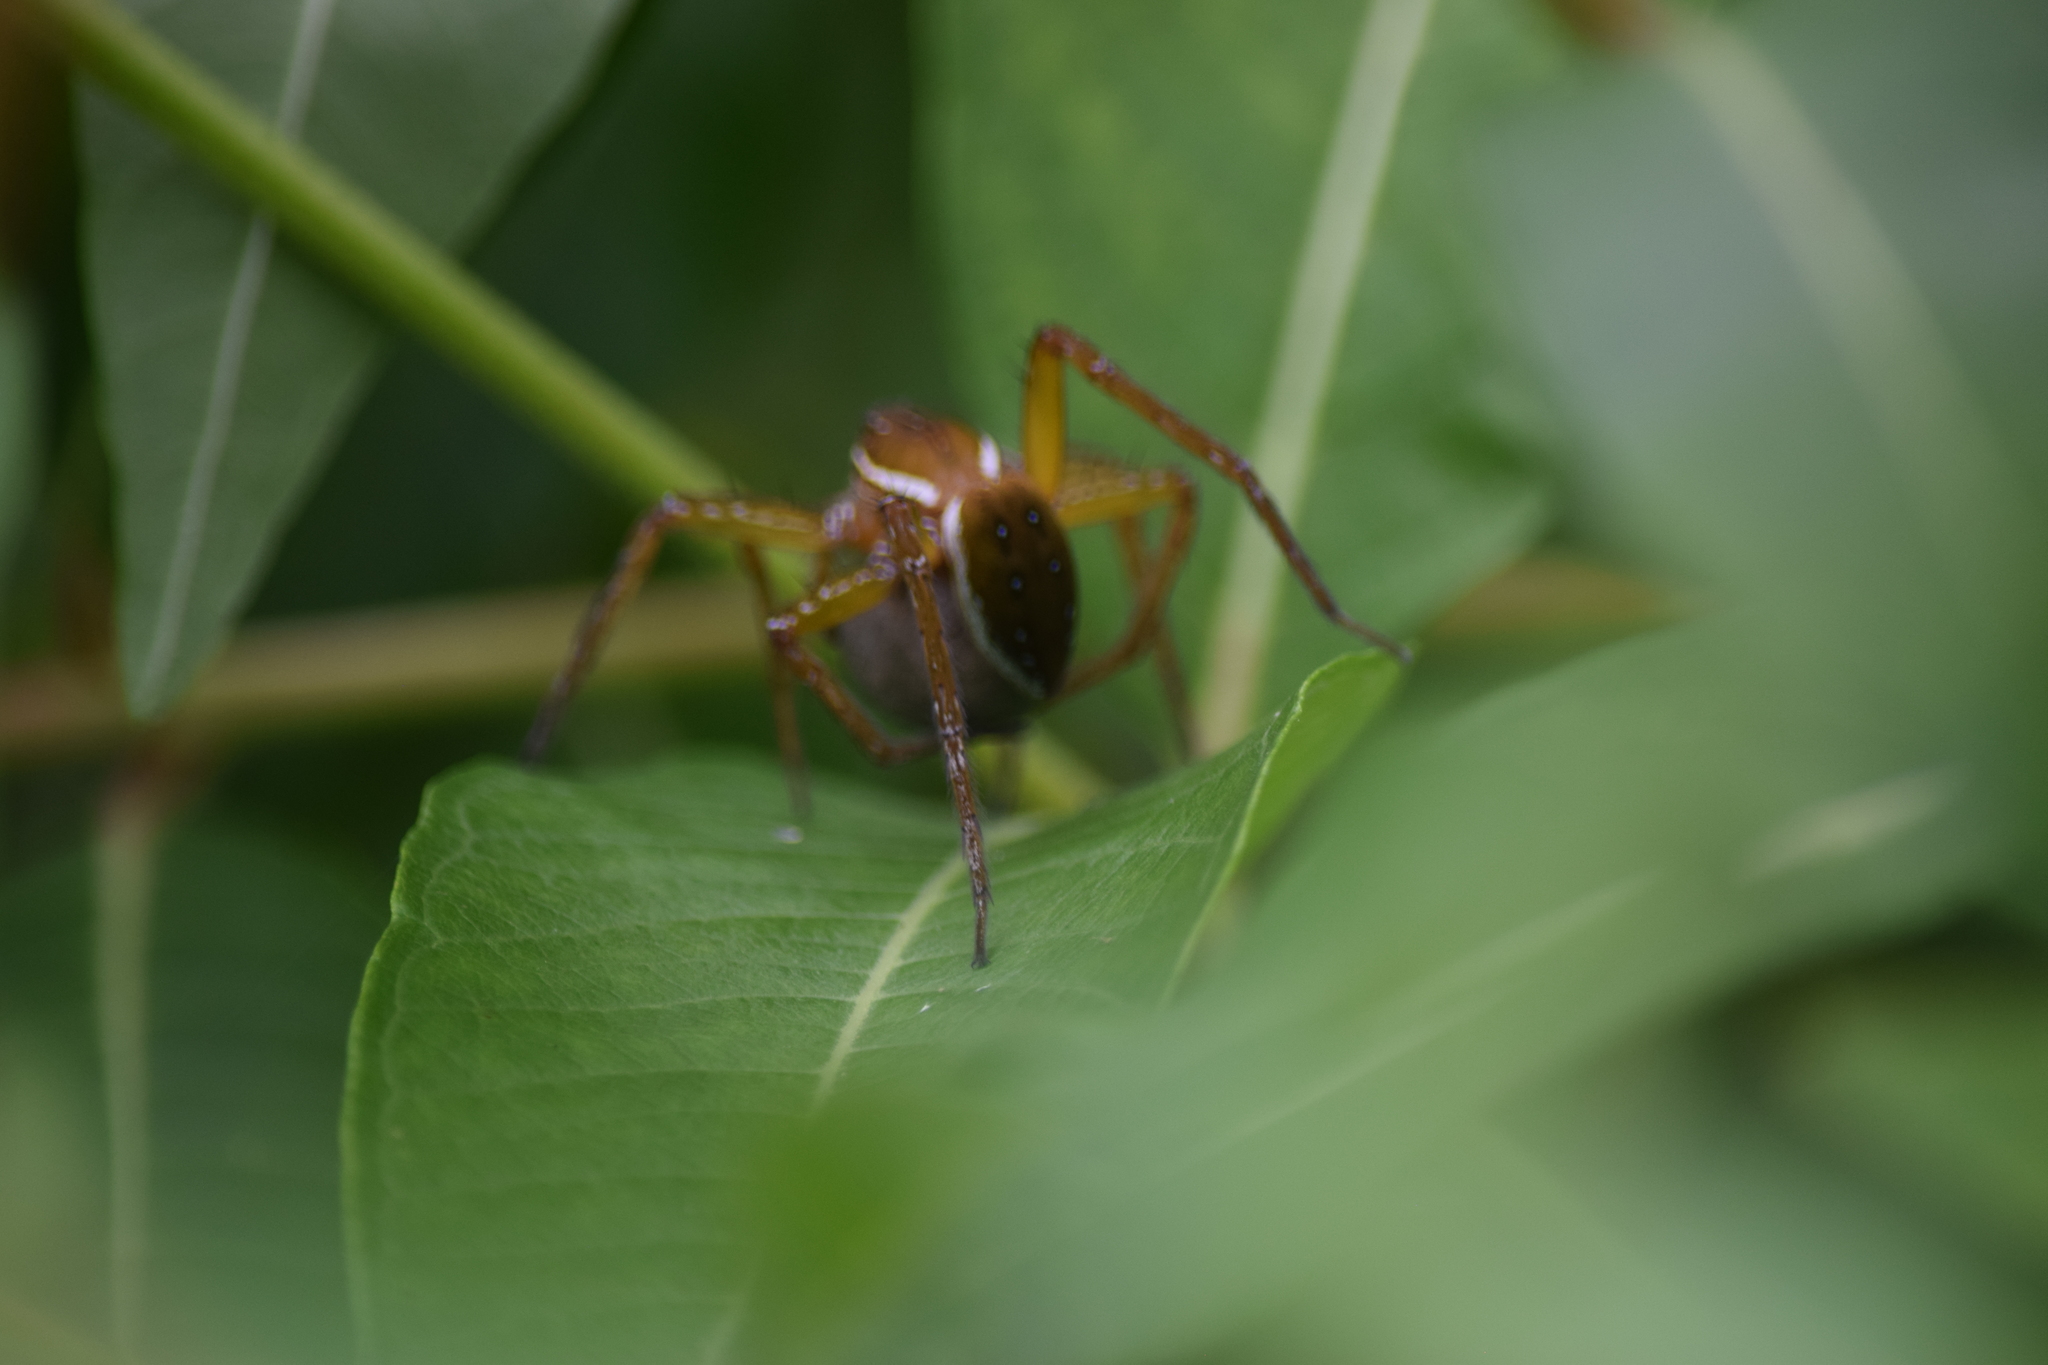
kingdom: Animalia
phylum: Arthropoda
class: Arachnida
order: Araneae
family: Pisauridae
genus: Dolomedes
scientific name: Dolomedes triton
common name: Six-spotted fishing spider
